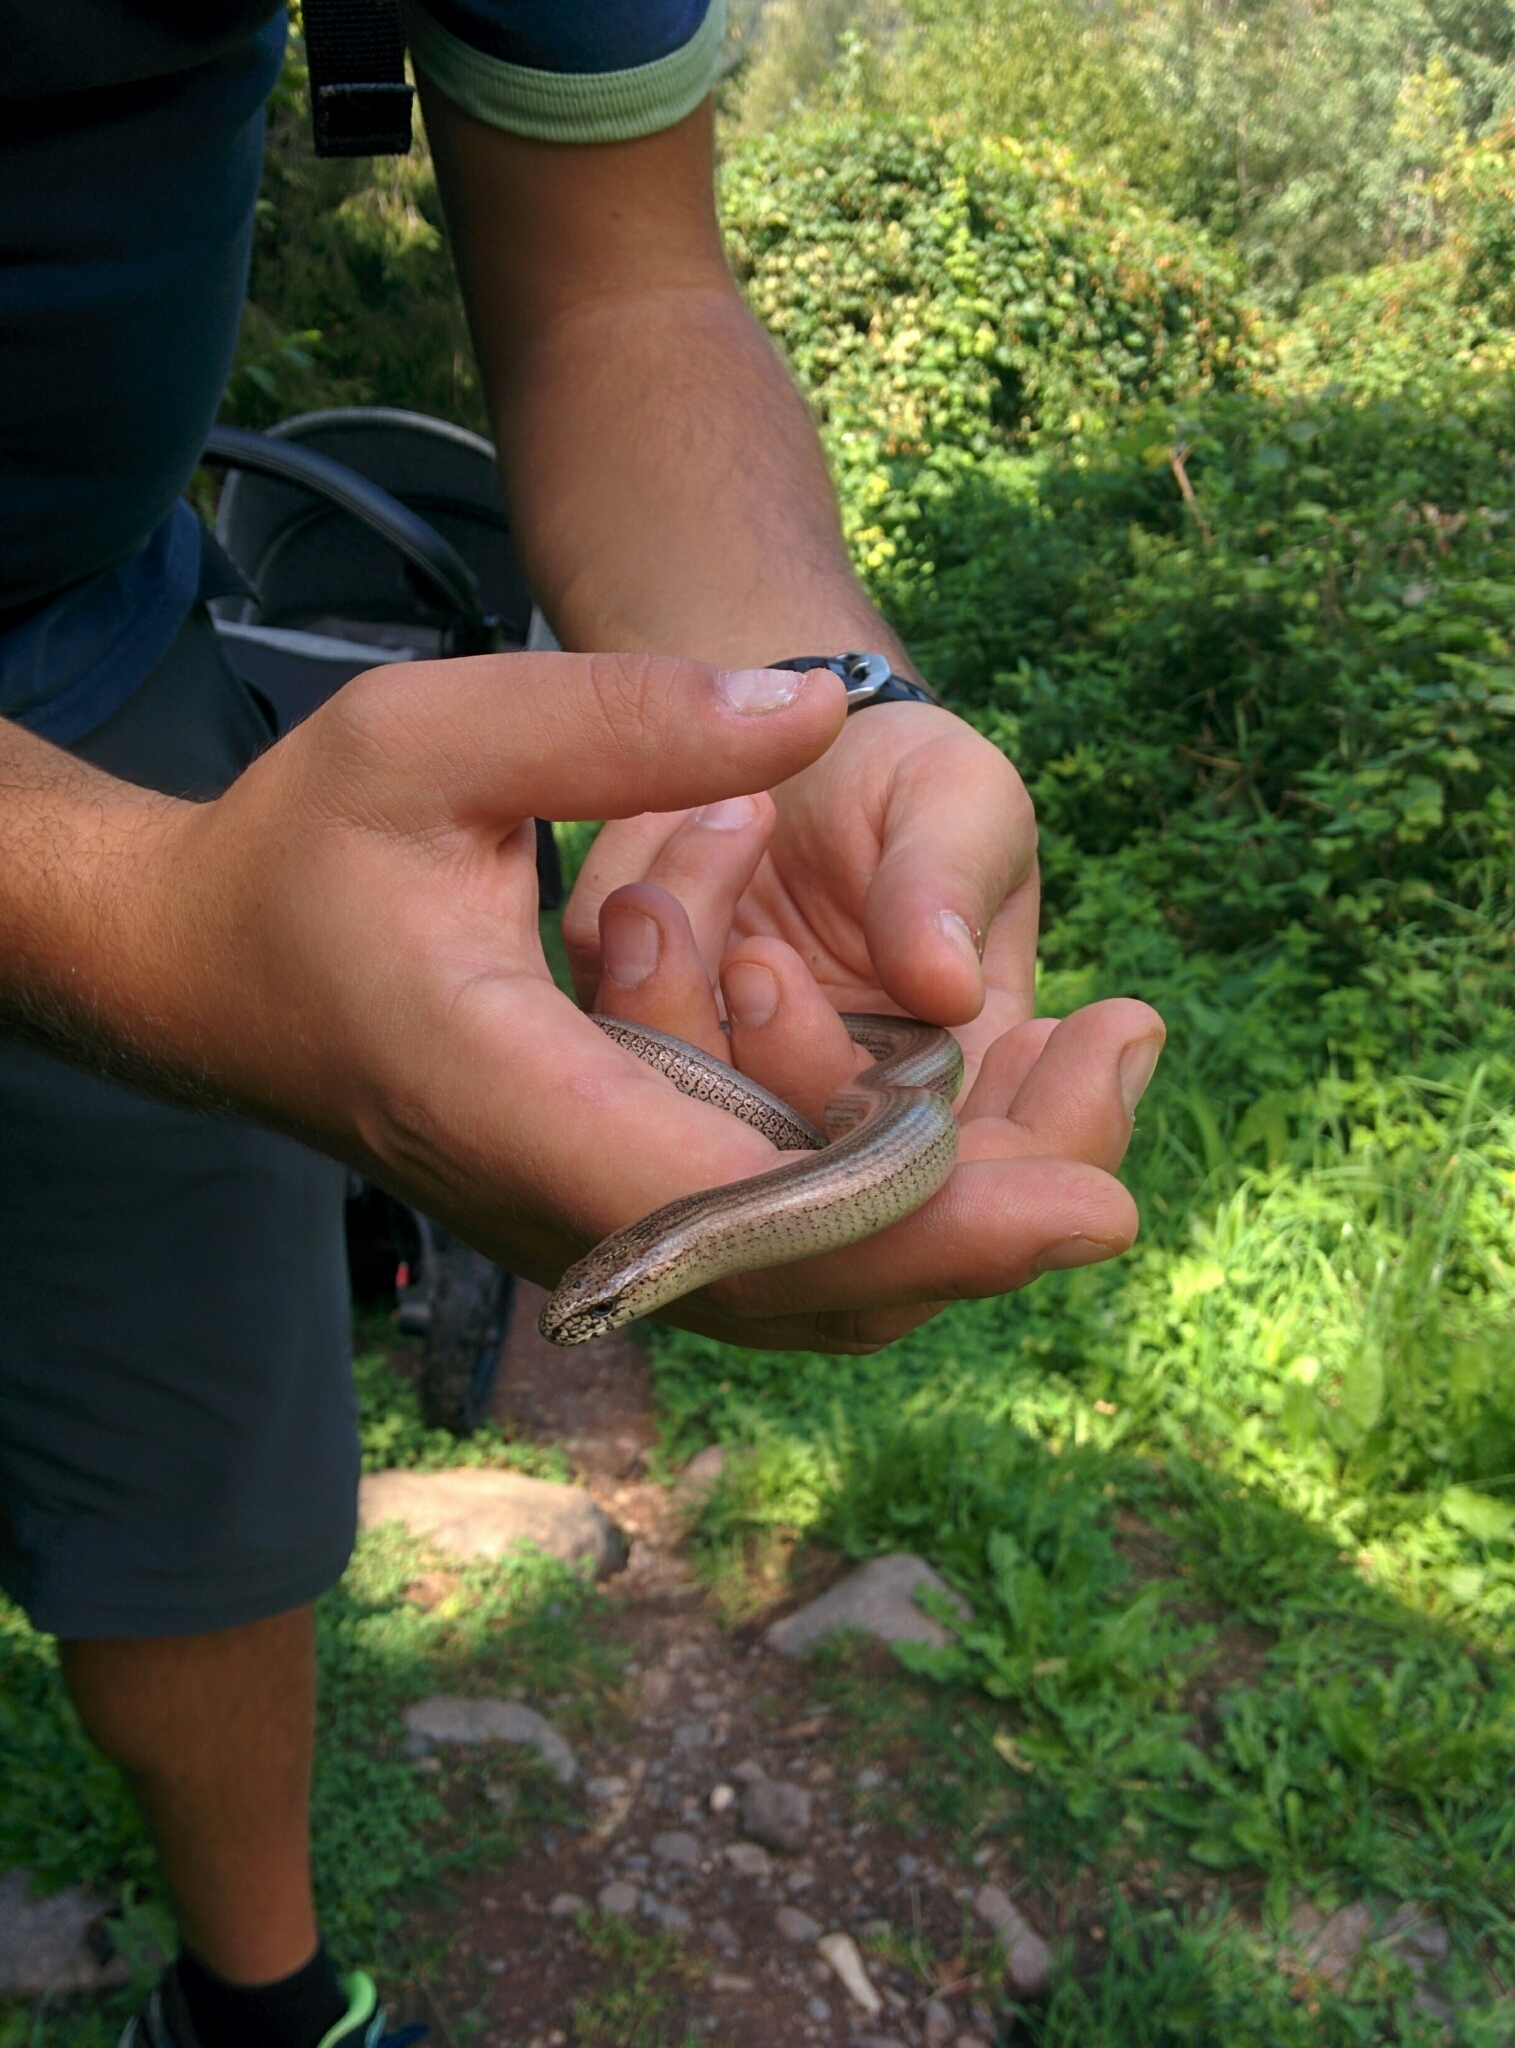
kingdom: Animalia
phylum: Chordata
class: Squamata
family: Anguidae
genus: Anguis
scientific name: Anguis veronensis
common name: Italian slow worm
